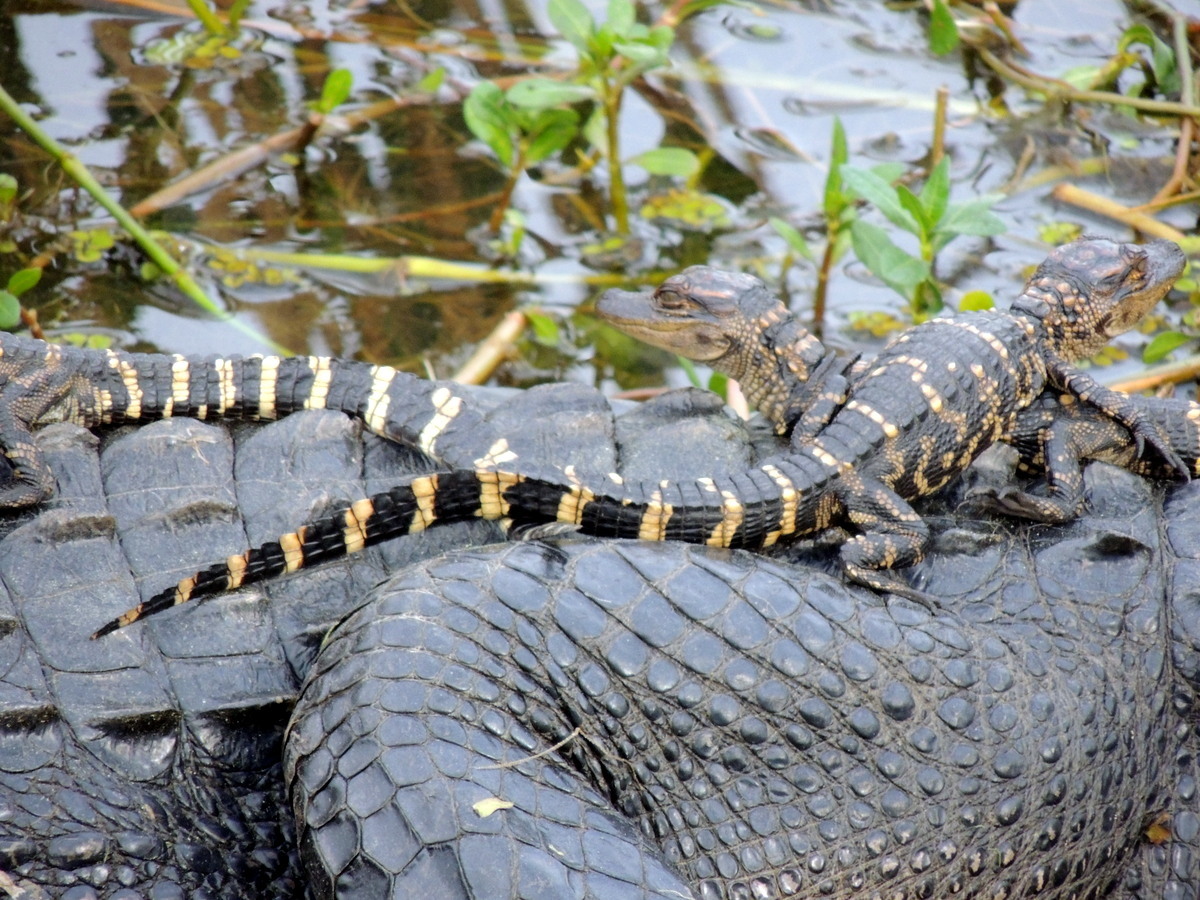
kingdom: Animalia
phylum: Chordata
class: Crocodylia
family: Alligatoridae
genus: Alligator
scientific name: Alligator mississippiensis
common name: American alligator
